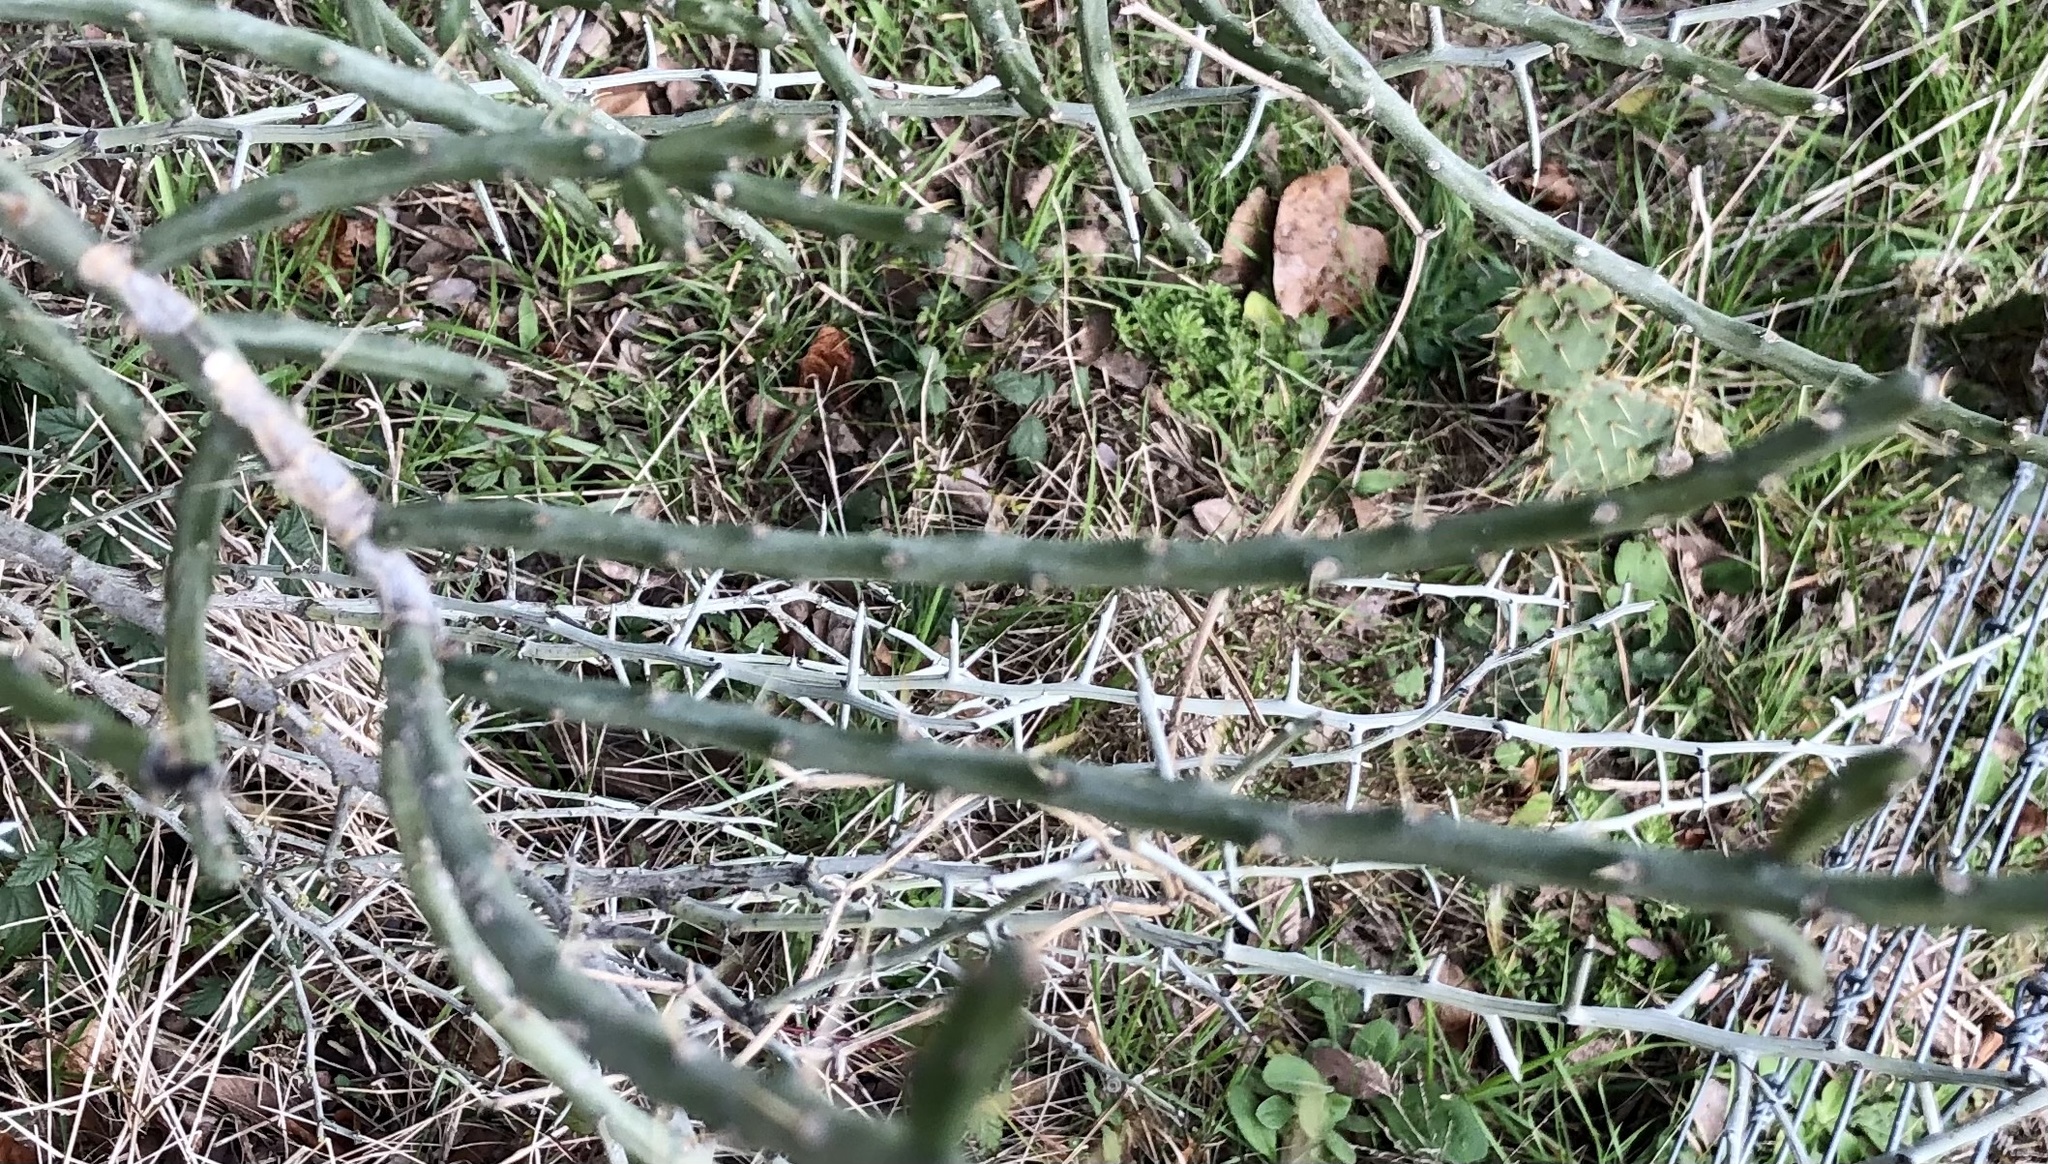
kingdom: Plantae
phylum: Tracheophyta
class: Magnoliopsida
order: Caryophyllales
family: Cactaceae
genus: Cylindropuntia
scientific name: Cylindropuntia leptocaulis
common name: Christmas cactus
